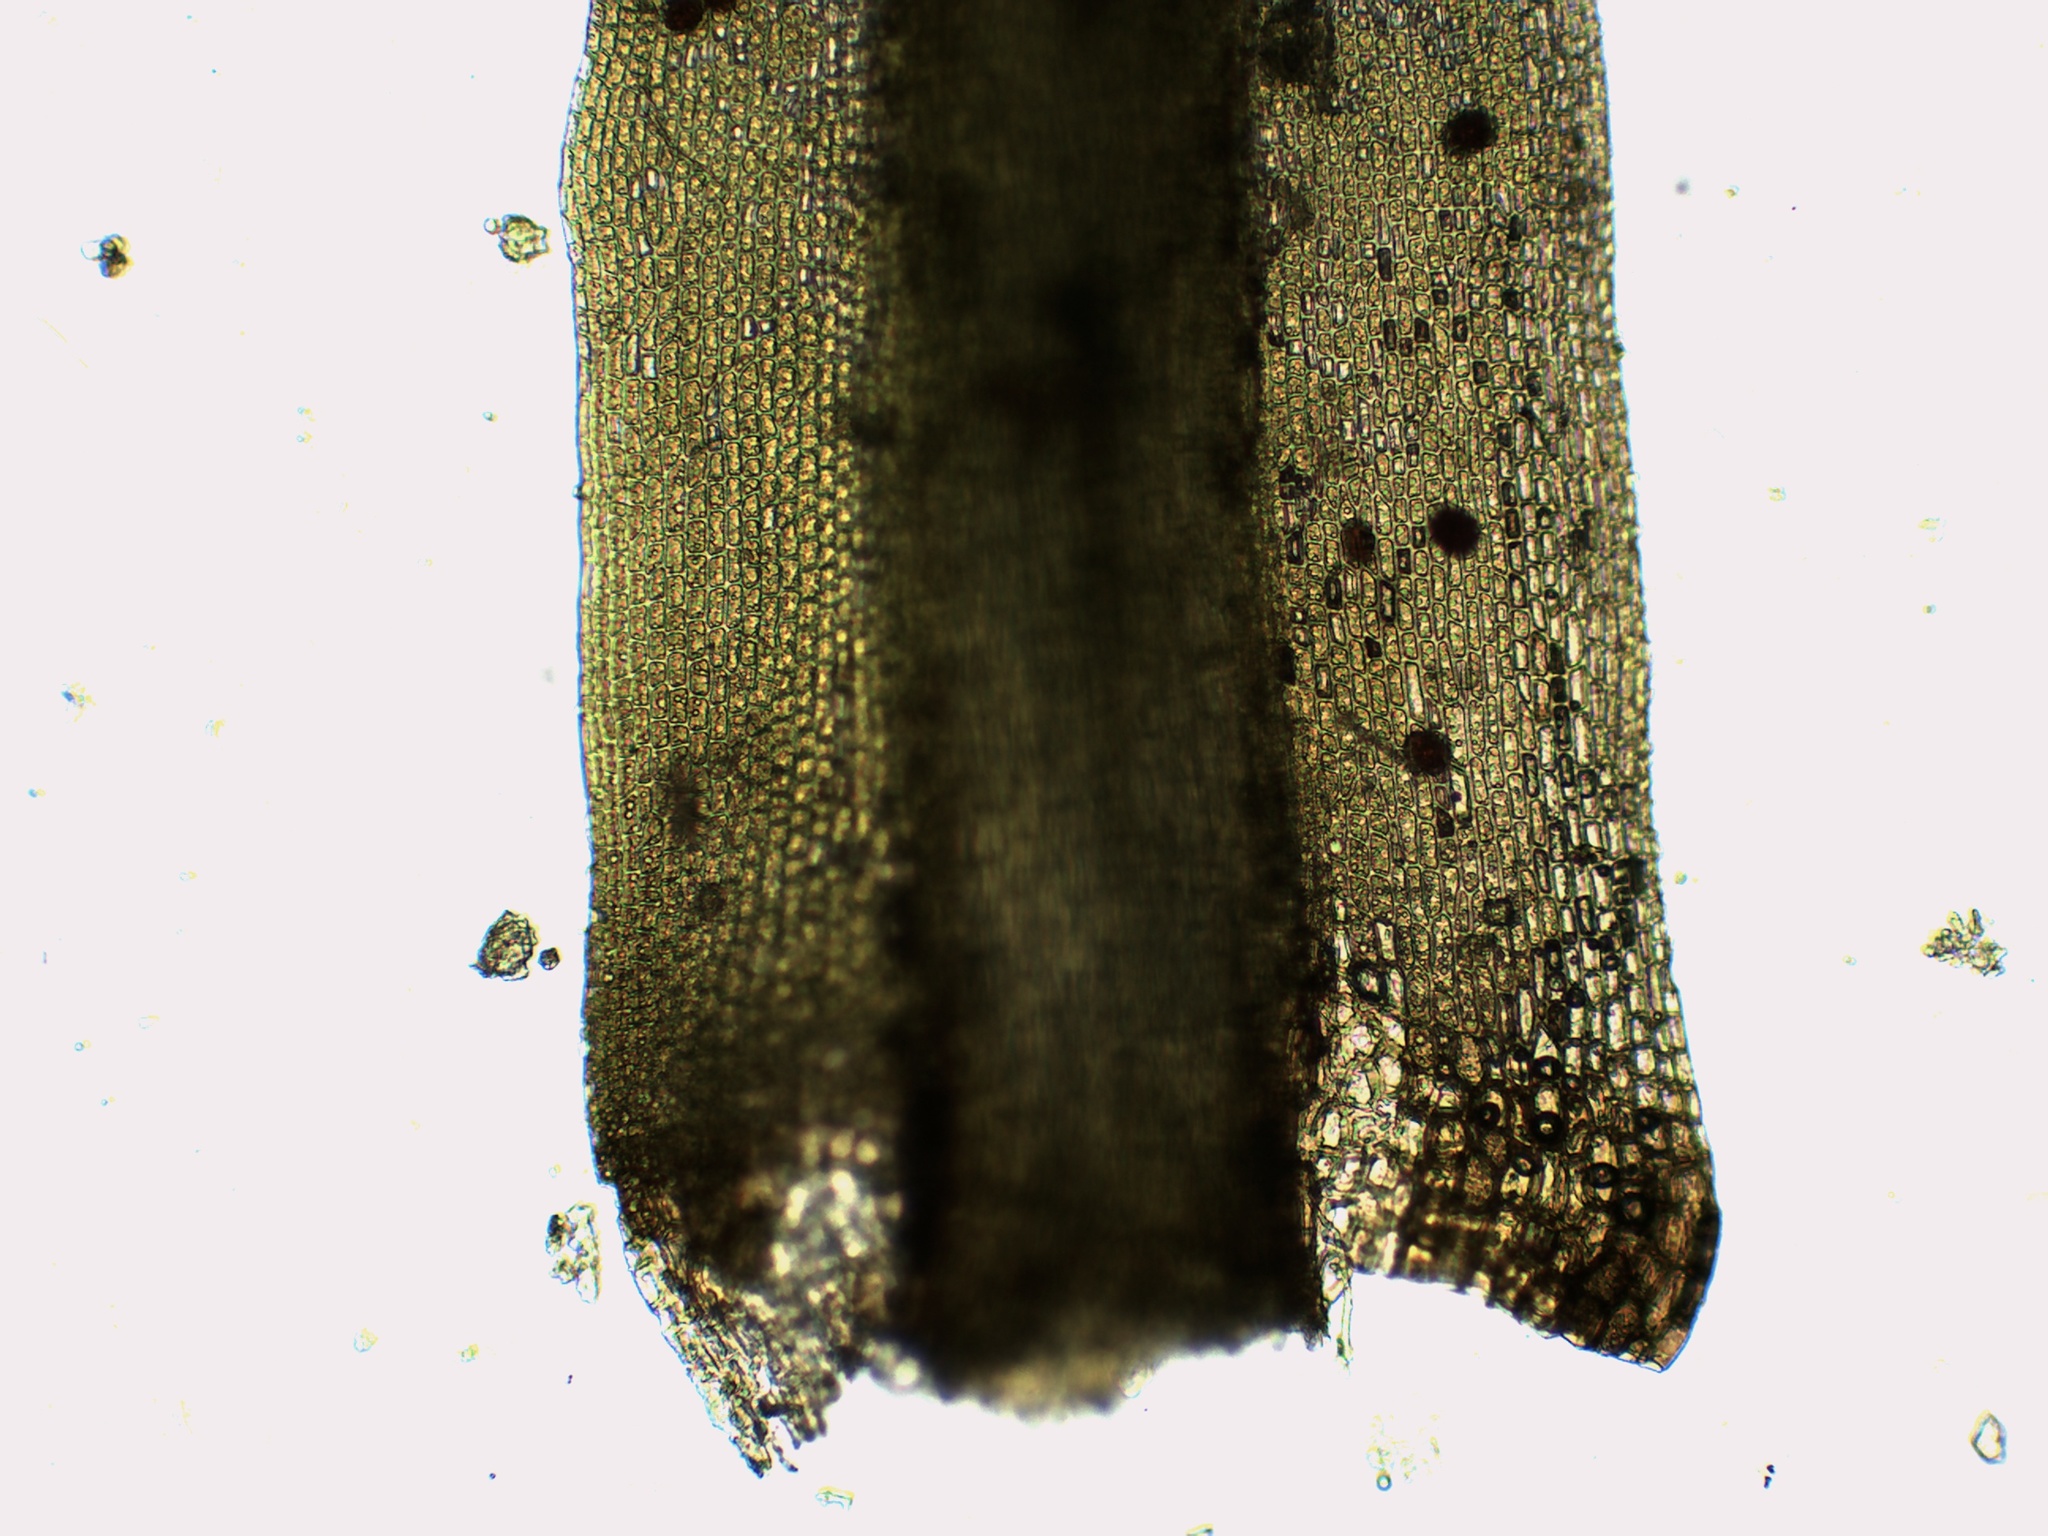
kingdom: Plantae
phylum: Bryophyta
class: Bryopsida
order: Dicranales
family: Dicranaceae
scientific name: Dicranaceae
